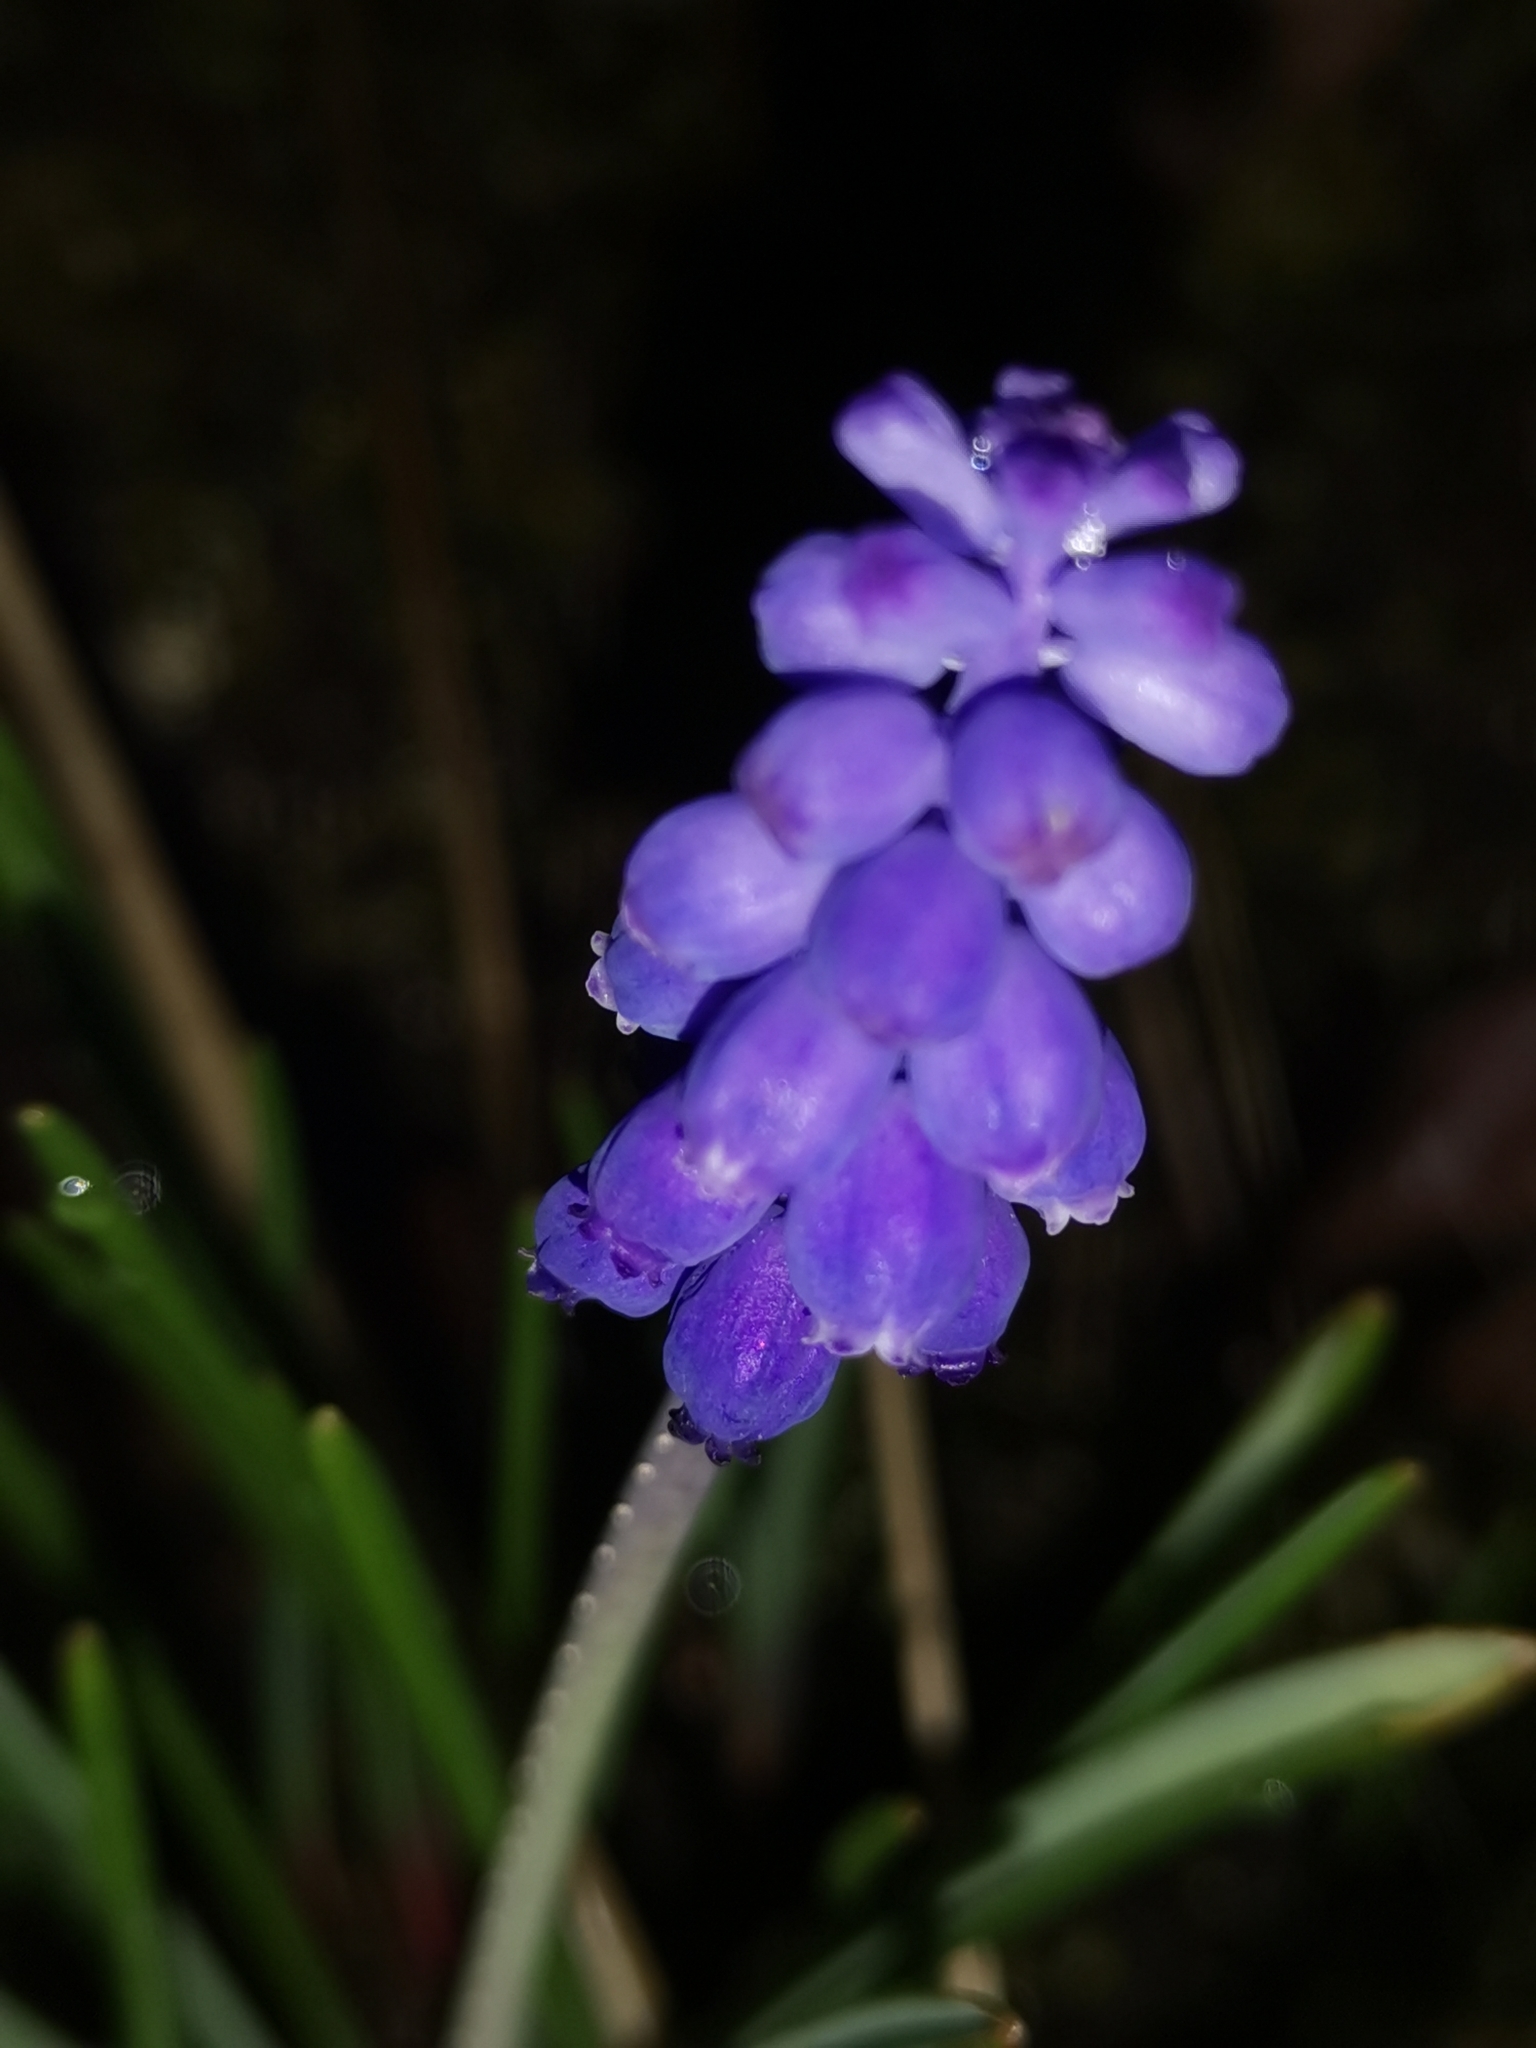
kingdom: Plantae
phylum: Tracheophyta
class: Liliopsida
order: Asparagales
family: Asparagaceae
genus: Muscari
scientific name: Muscari neglectum
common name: Grape-hyacinth
